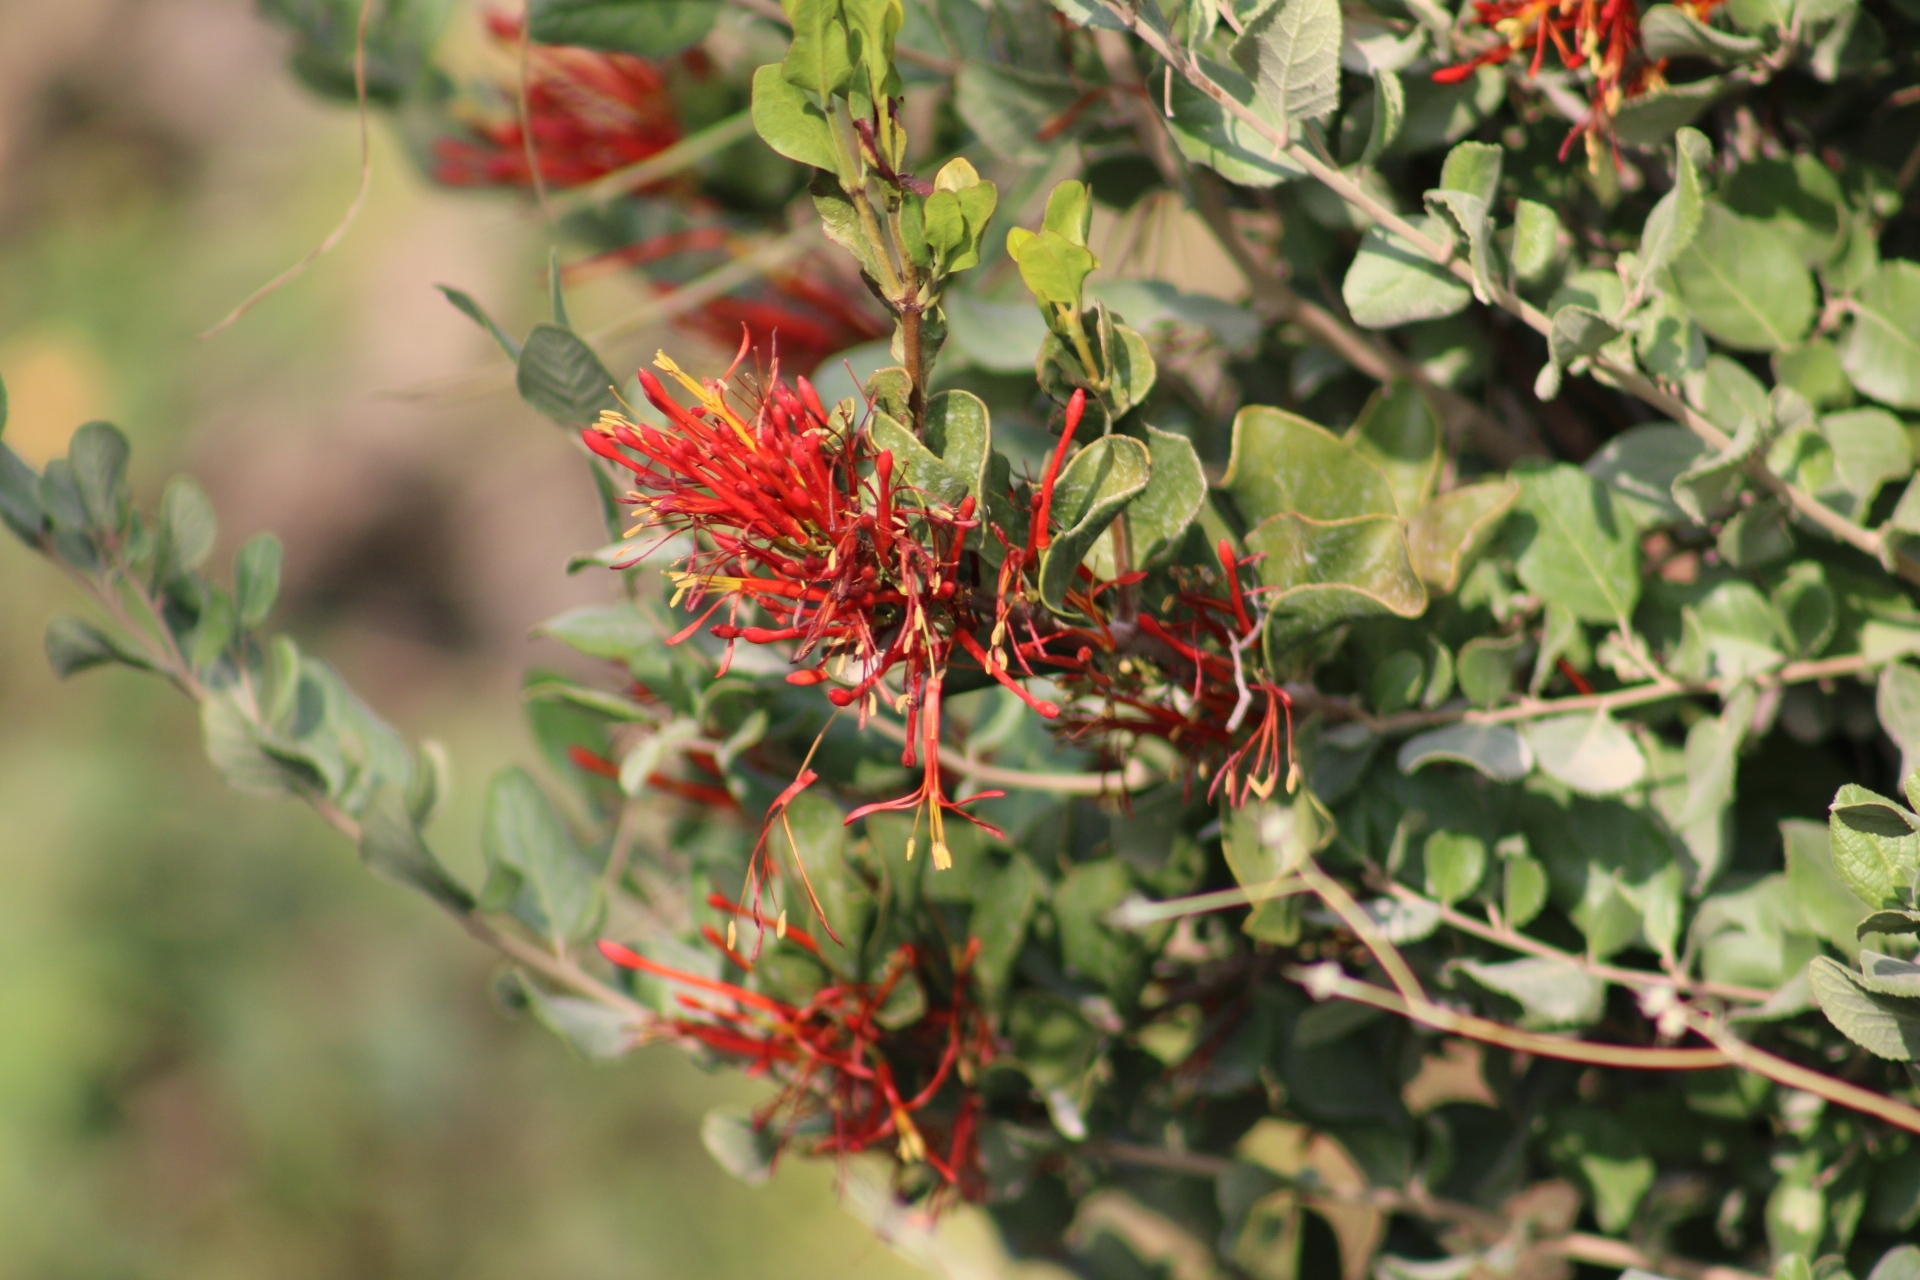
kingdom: Plantae
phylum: Tracheophyta
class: Magnoliopsida
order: Santalales
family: Loranthaceae
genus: Tristerix
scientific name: Tristerix corymbosus
